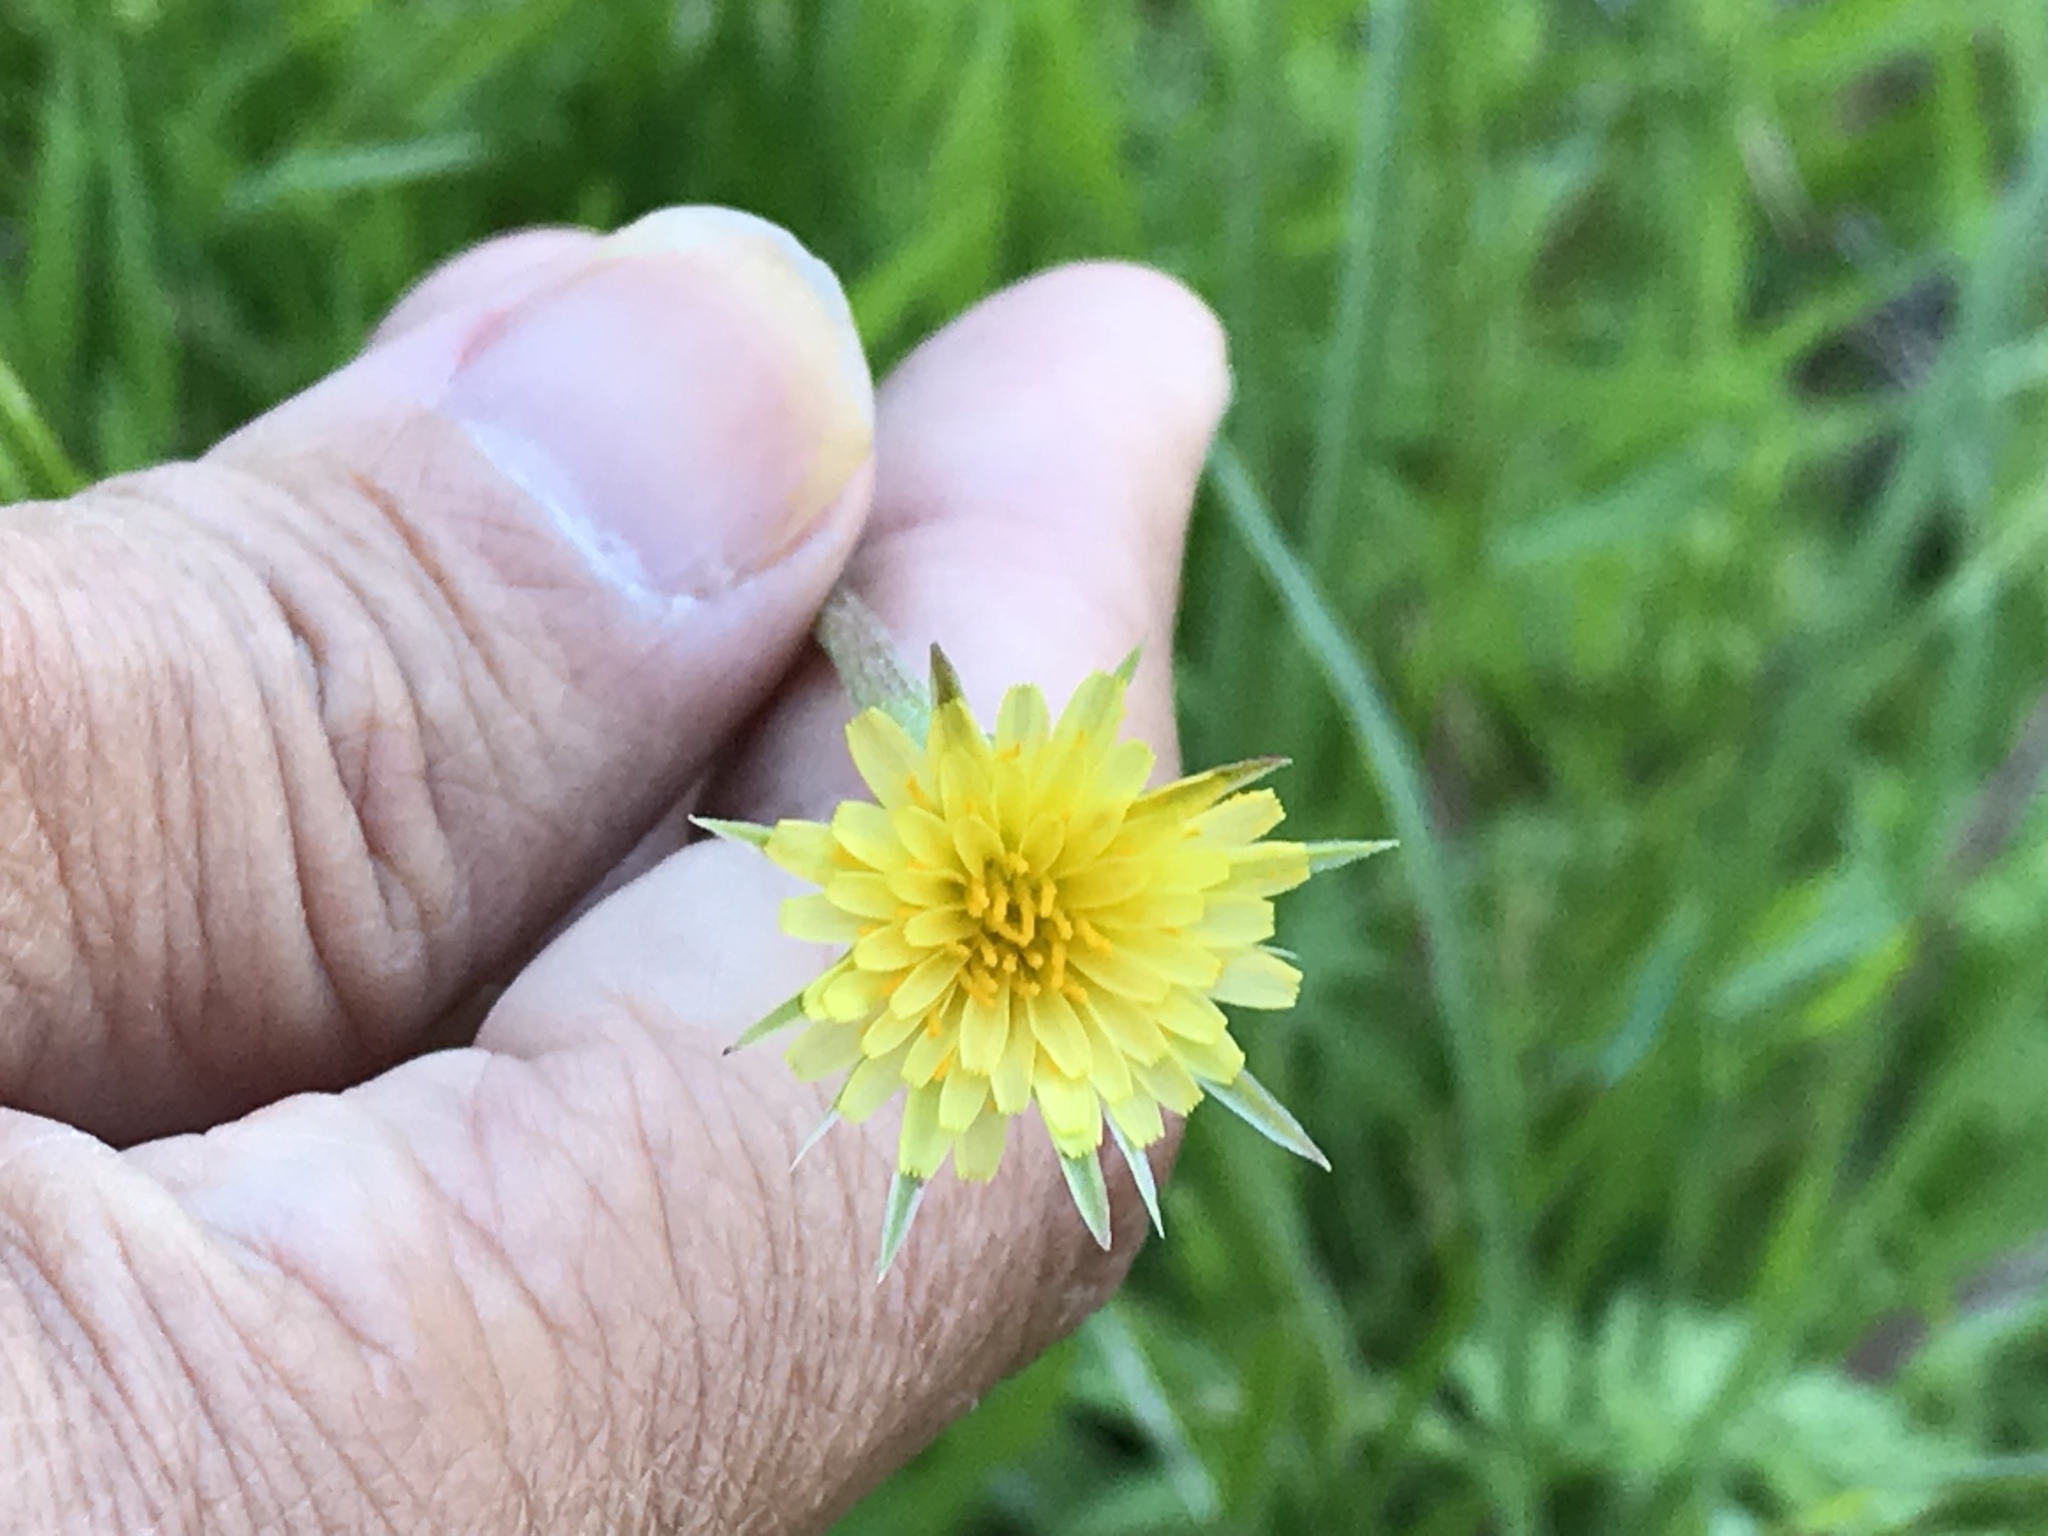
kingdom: Plantae
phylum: Tracheophyta
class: Magnoliopsida
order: Asterales
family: Asteraceae
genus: Microseris
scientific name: Microseris lindleyi
